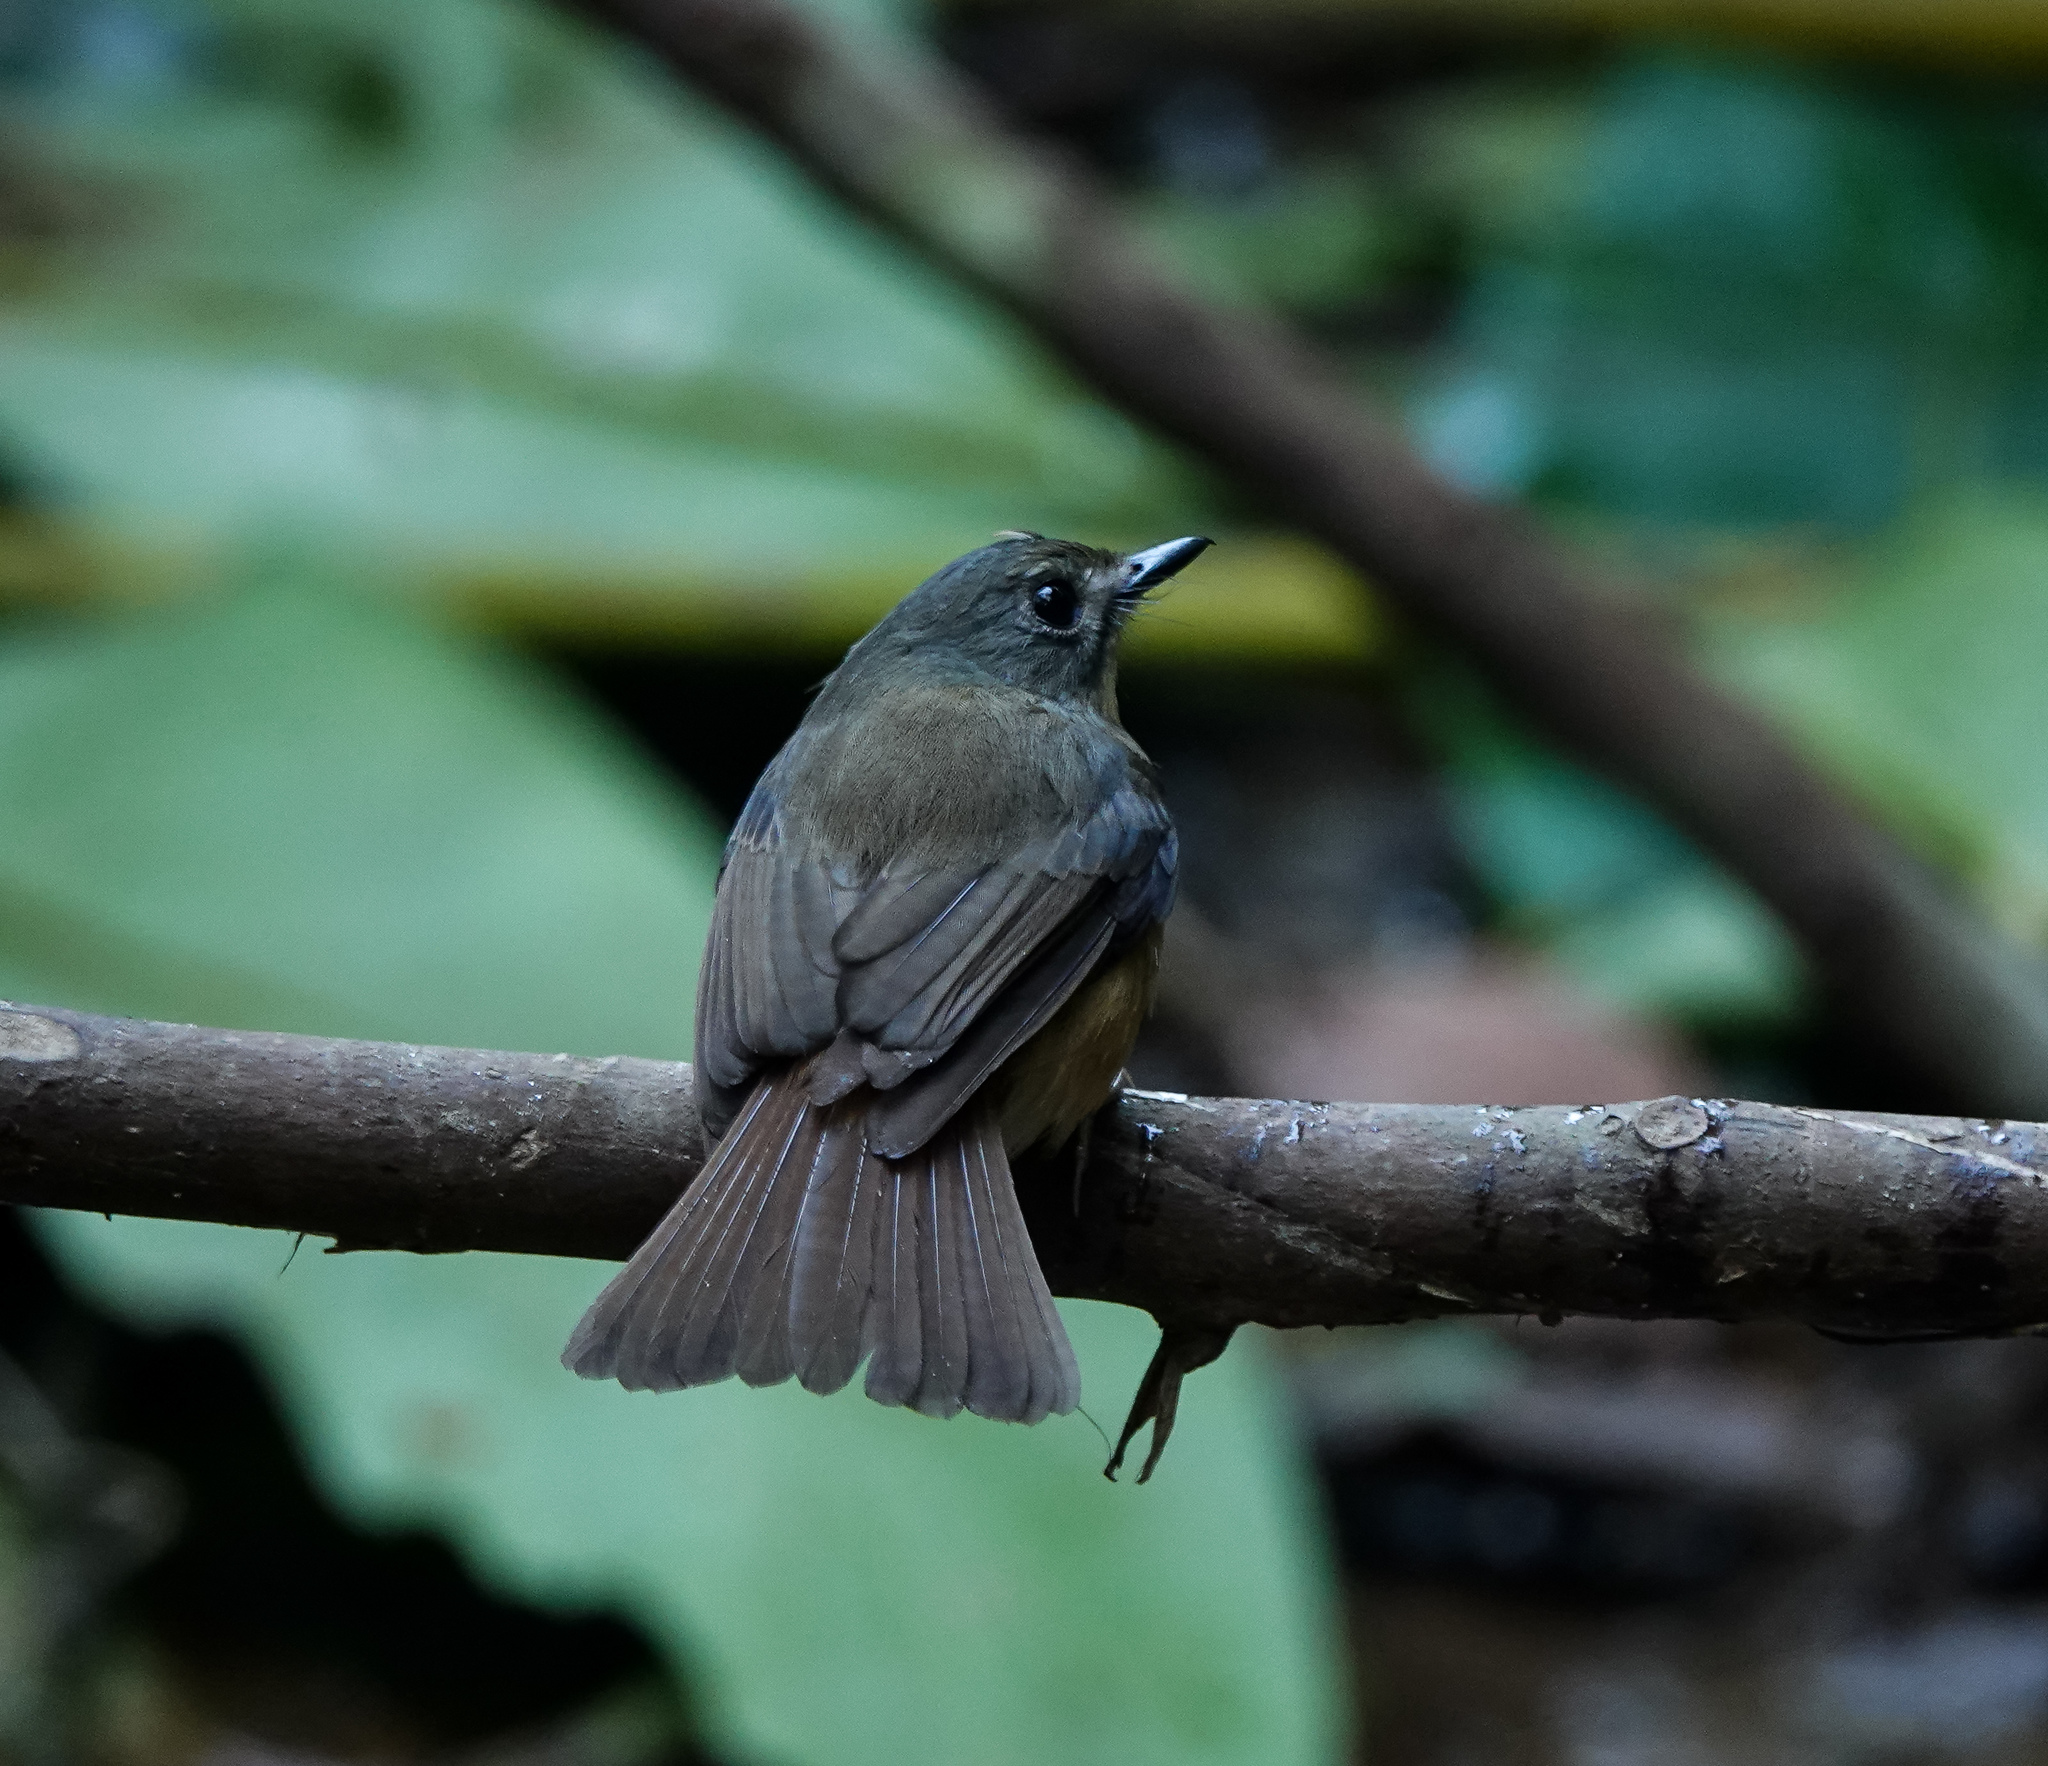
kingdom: Animalia
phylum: Chordata
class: Aves
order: Passeriformes
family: Muscicapidae
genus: Cyornis
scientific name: Cyornis poliogenys
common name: Pale-chinned blue flycatcher
